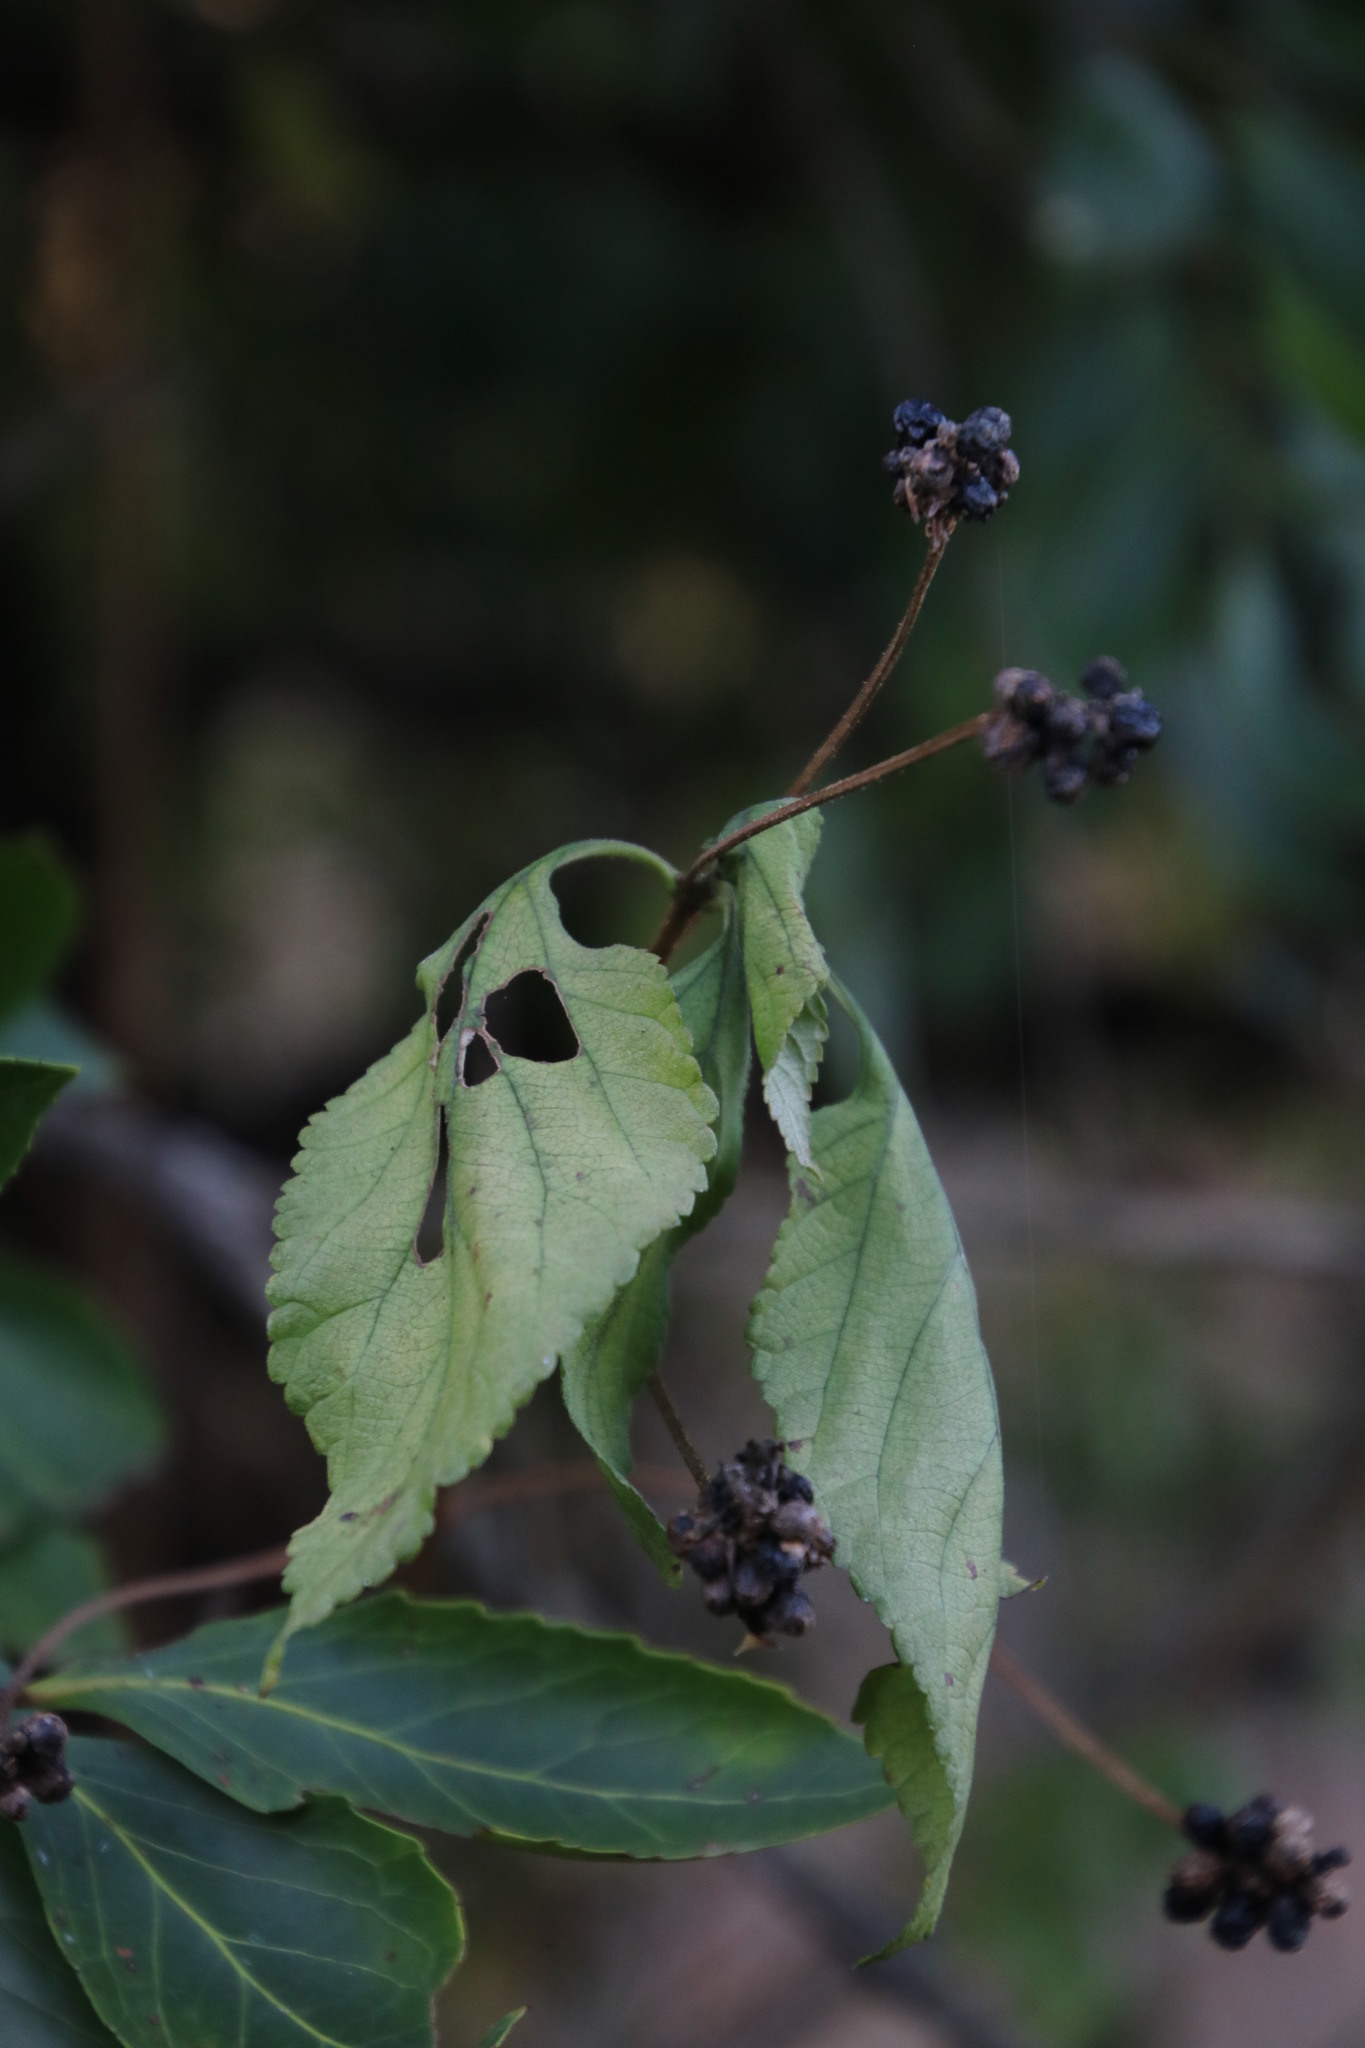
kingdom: Plantae
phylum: Tracheophyta
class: Magnoliopsida
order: Lamiales
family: Verbenaceae
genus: Lantana
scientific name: Lantana camara
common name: Lantana
